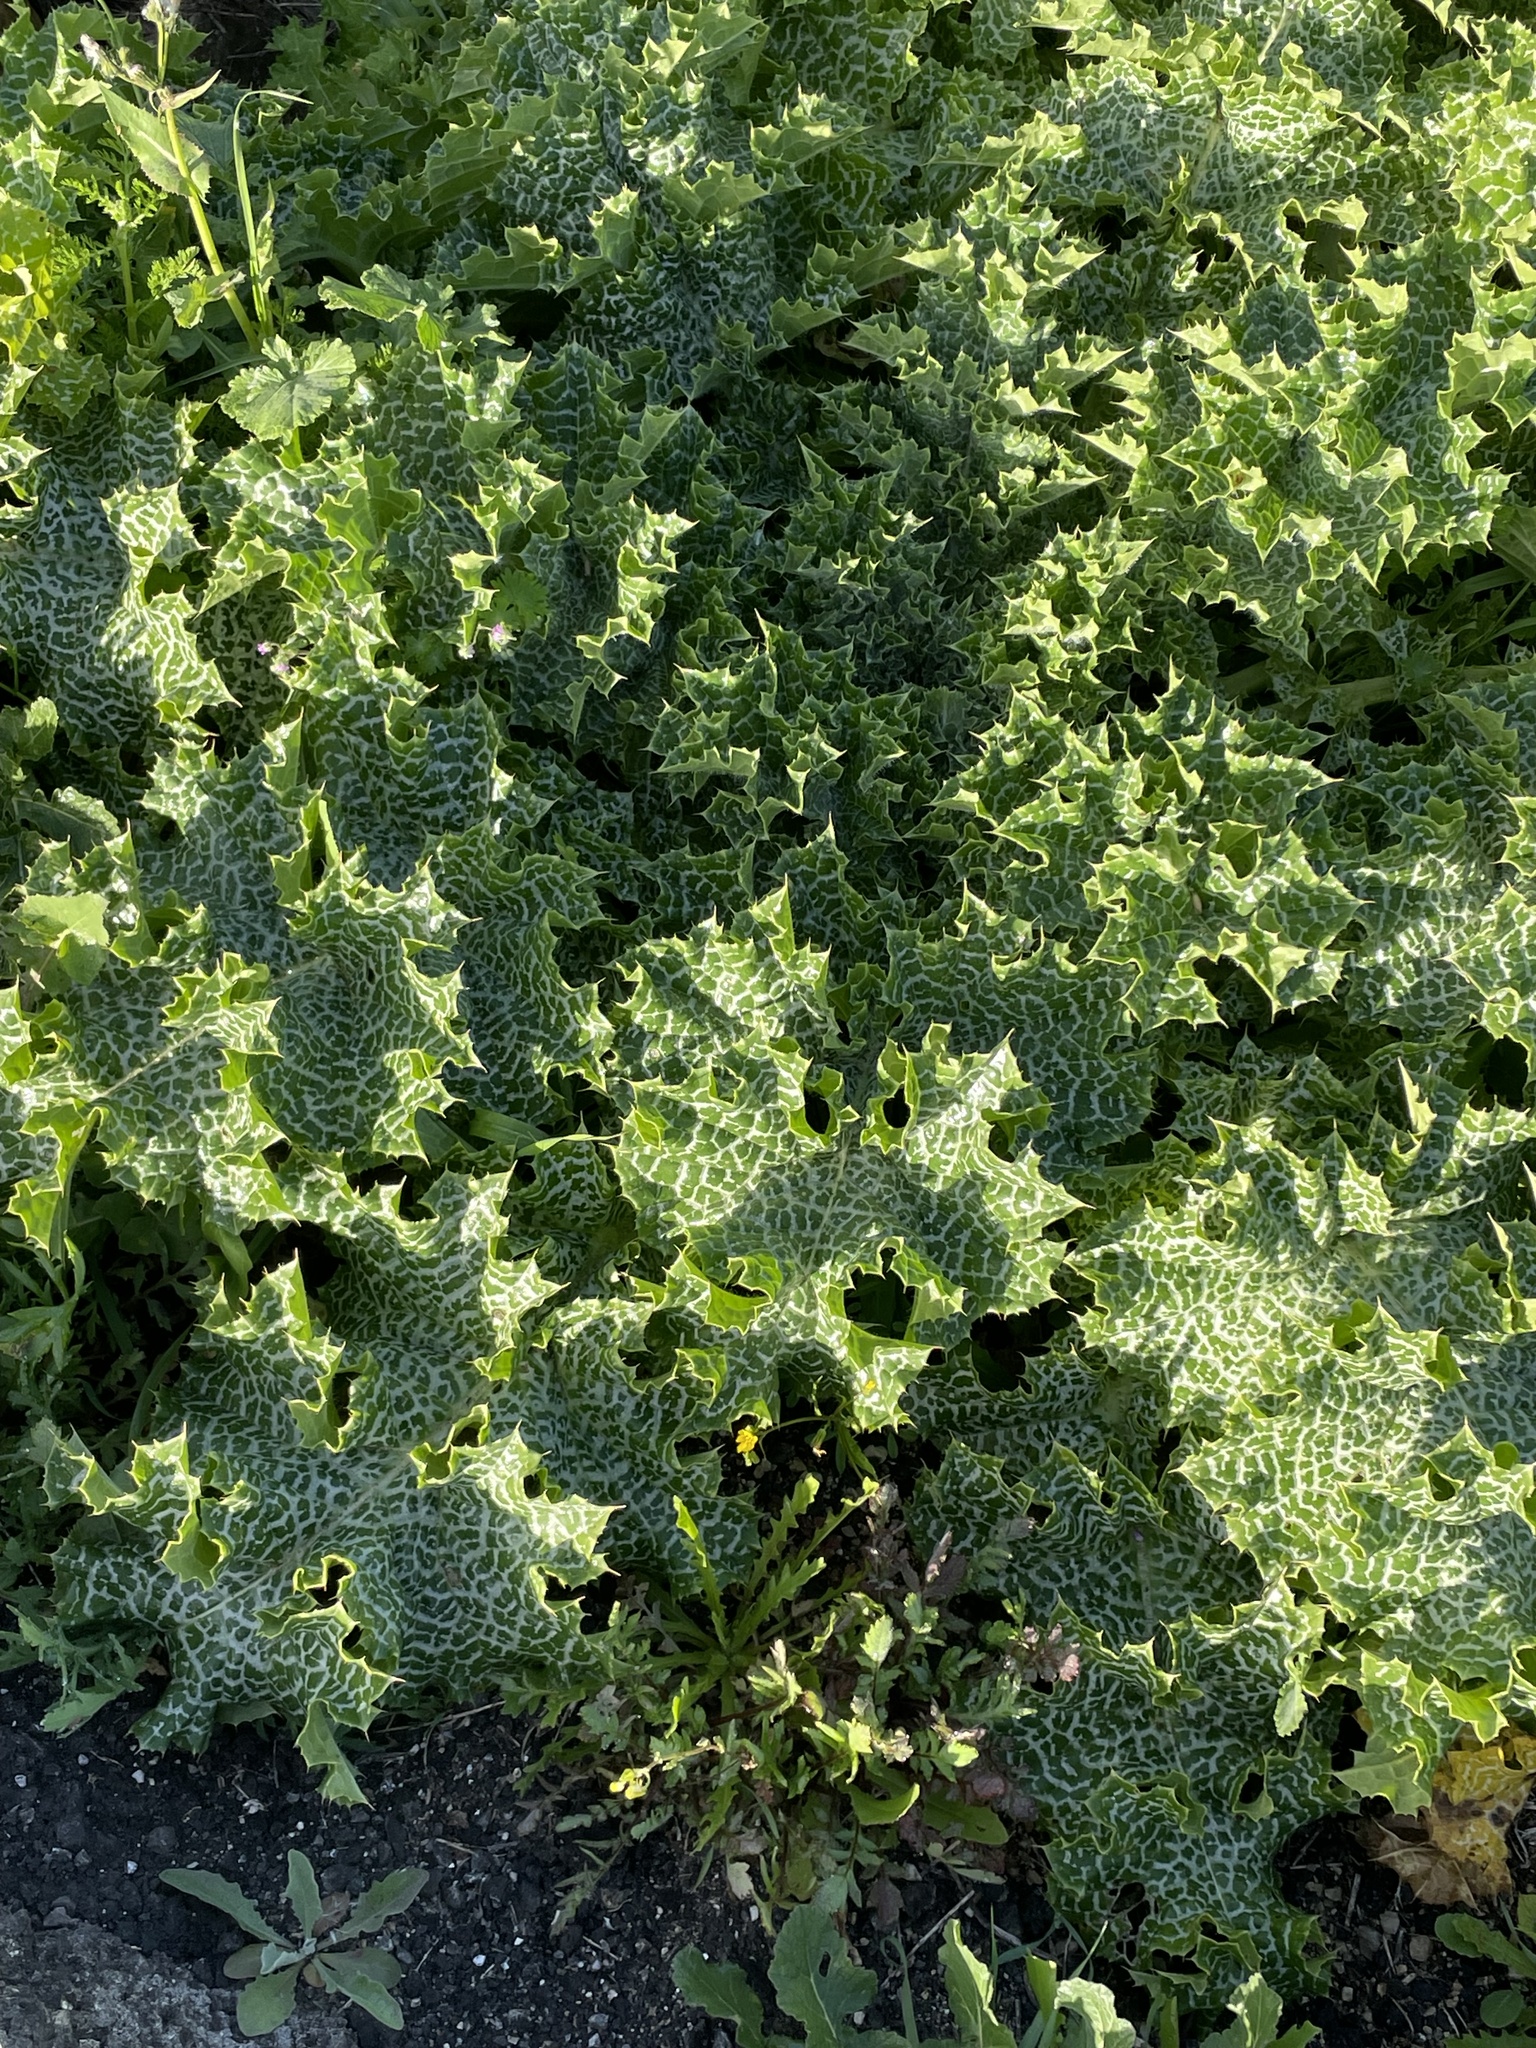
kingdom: Plantae
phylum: Tracheophyta
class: Magnoliopsida
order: Asterales
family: Asteraceae
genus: Silybum
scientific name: Silybum marianum
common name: Milk thistle
